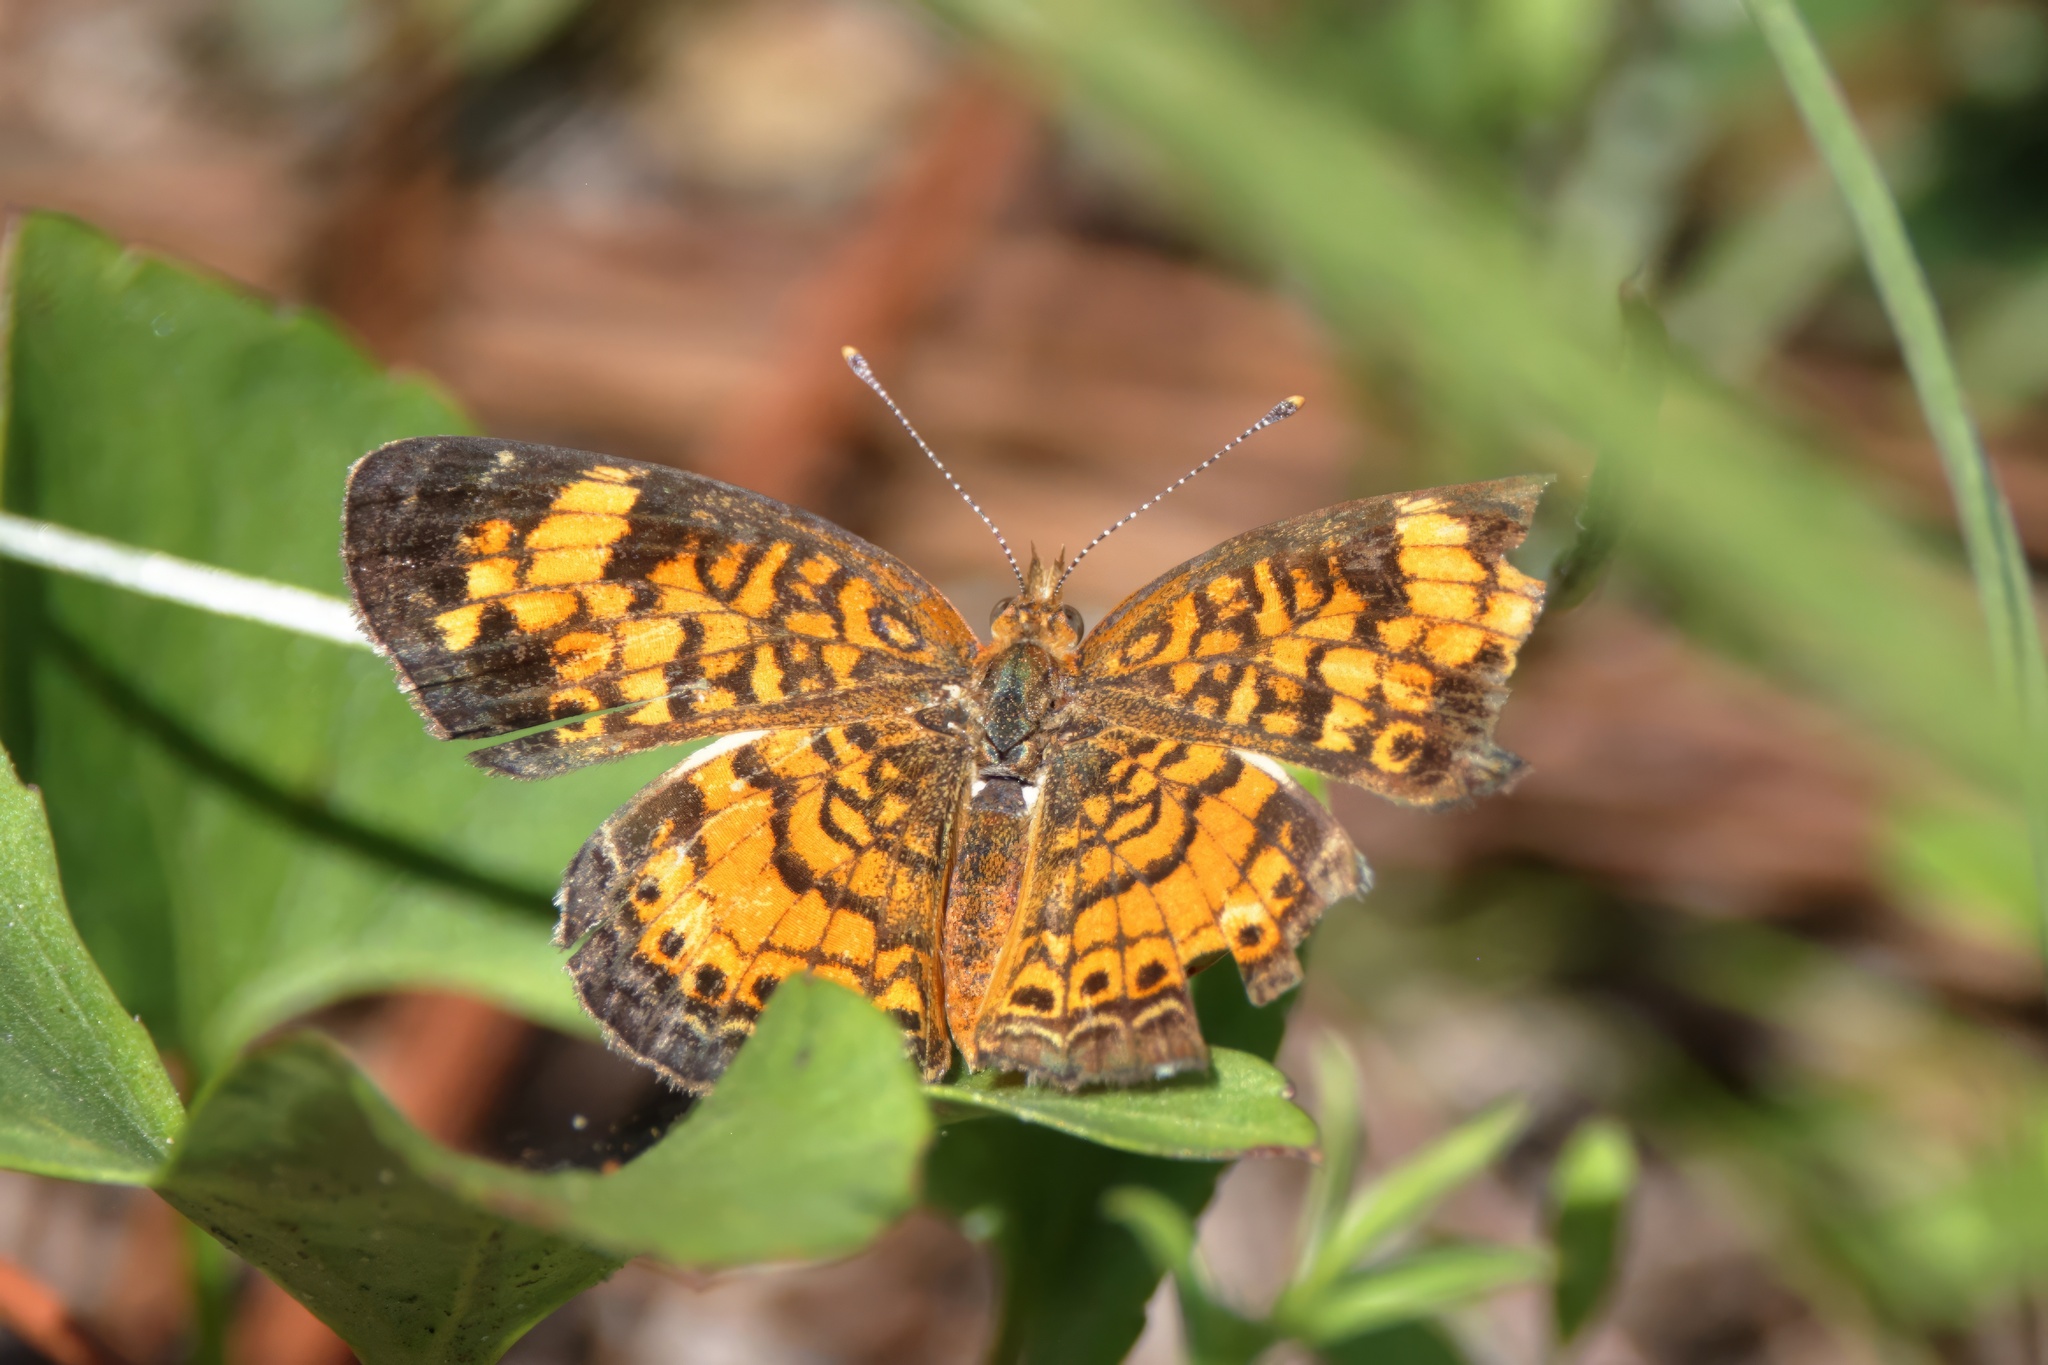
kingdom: Animalia
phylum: Arthropoda
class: Insecta
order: Lepidoptera
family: Nymphalidae
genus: Phyciodes
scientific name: Phyciodes tharos
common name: Pearl crescent
